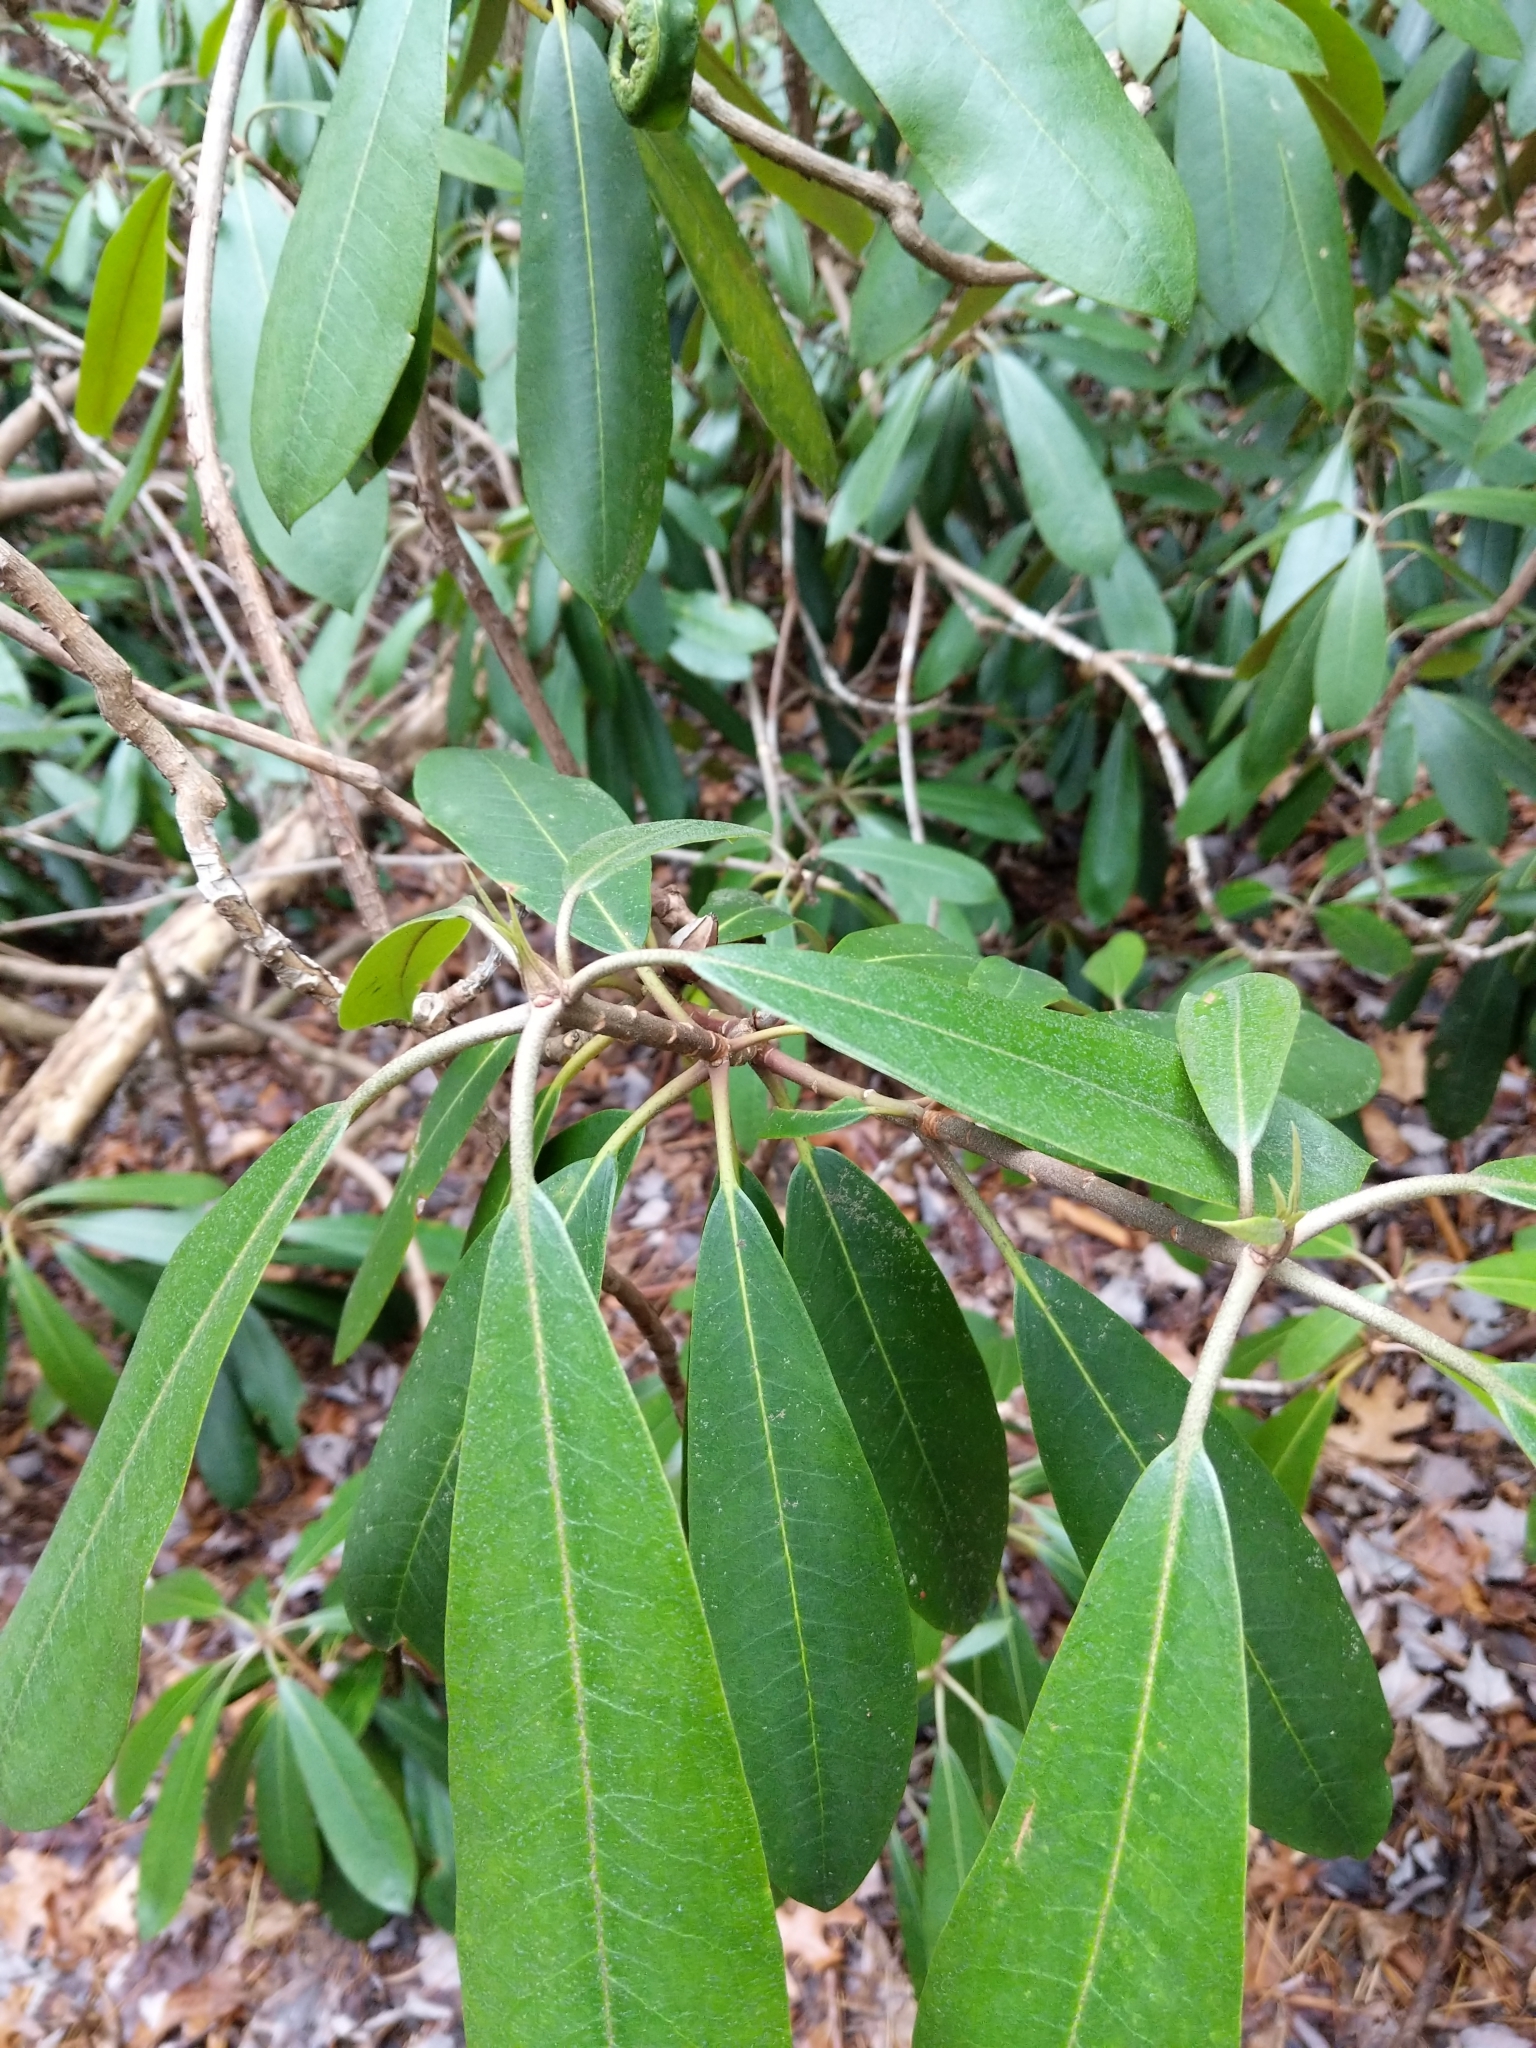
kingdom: Plantae
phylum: Tracheophyta
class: Magnoliopsida
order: Ericales
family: Ericaceae
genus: Rhododendron
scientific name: Rhododendron maximum
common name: Great rhododendron
